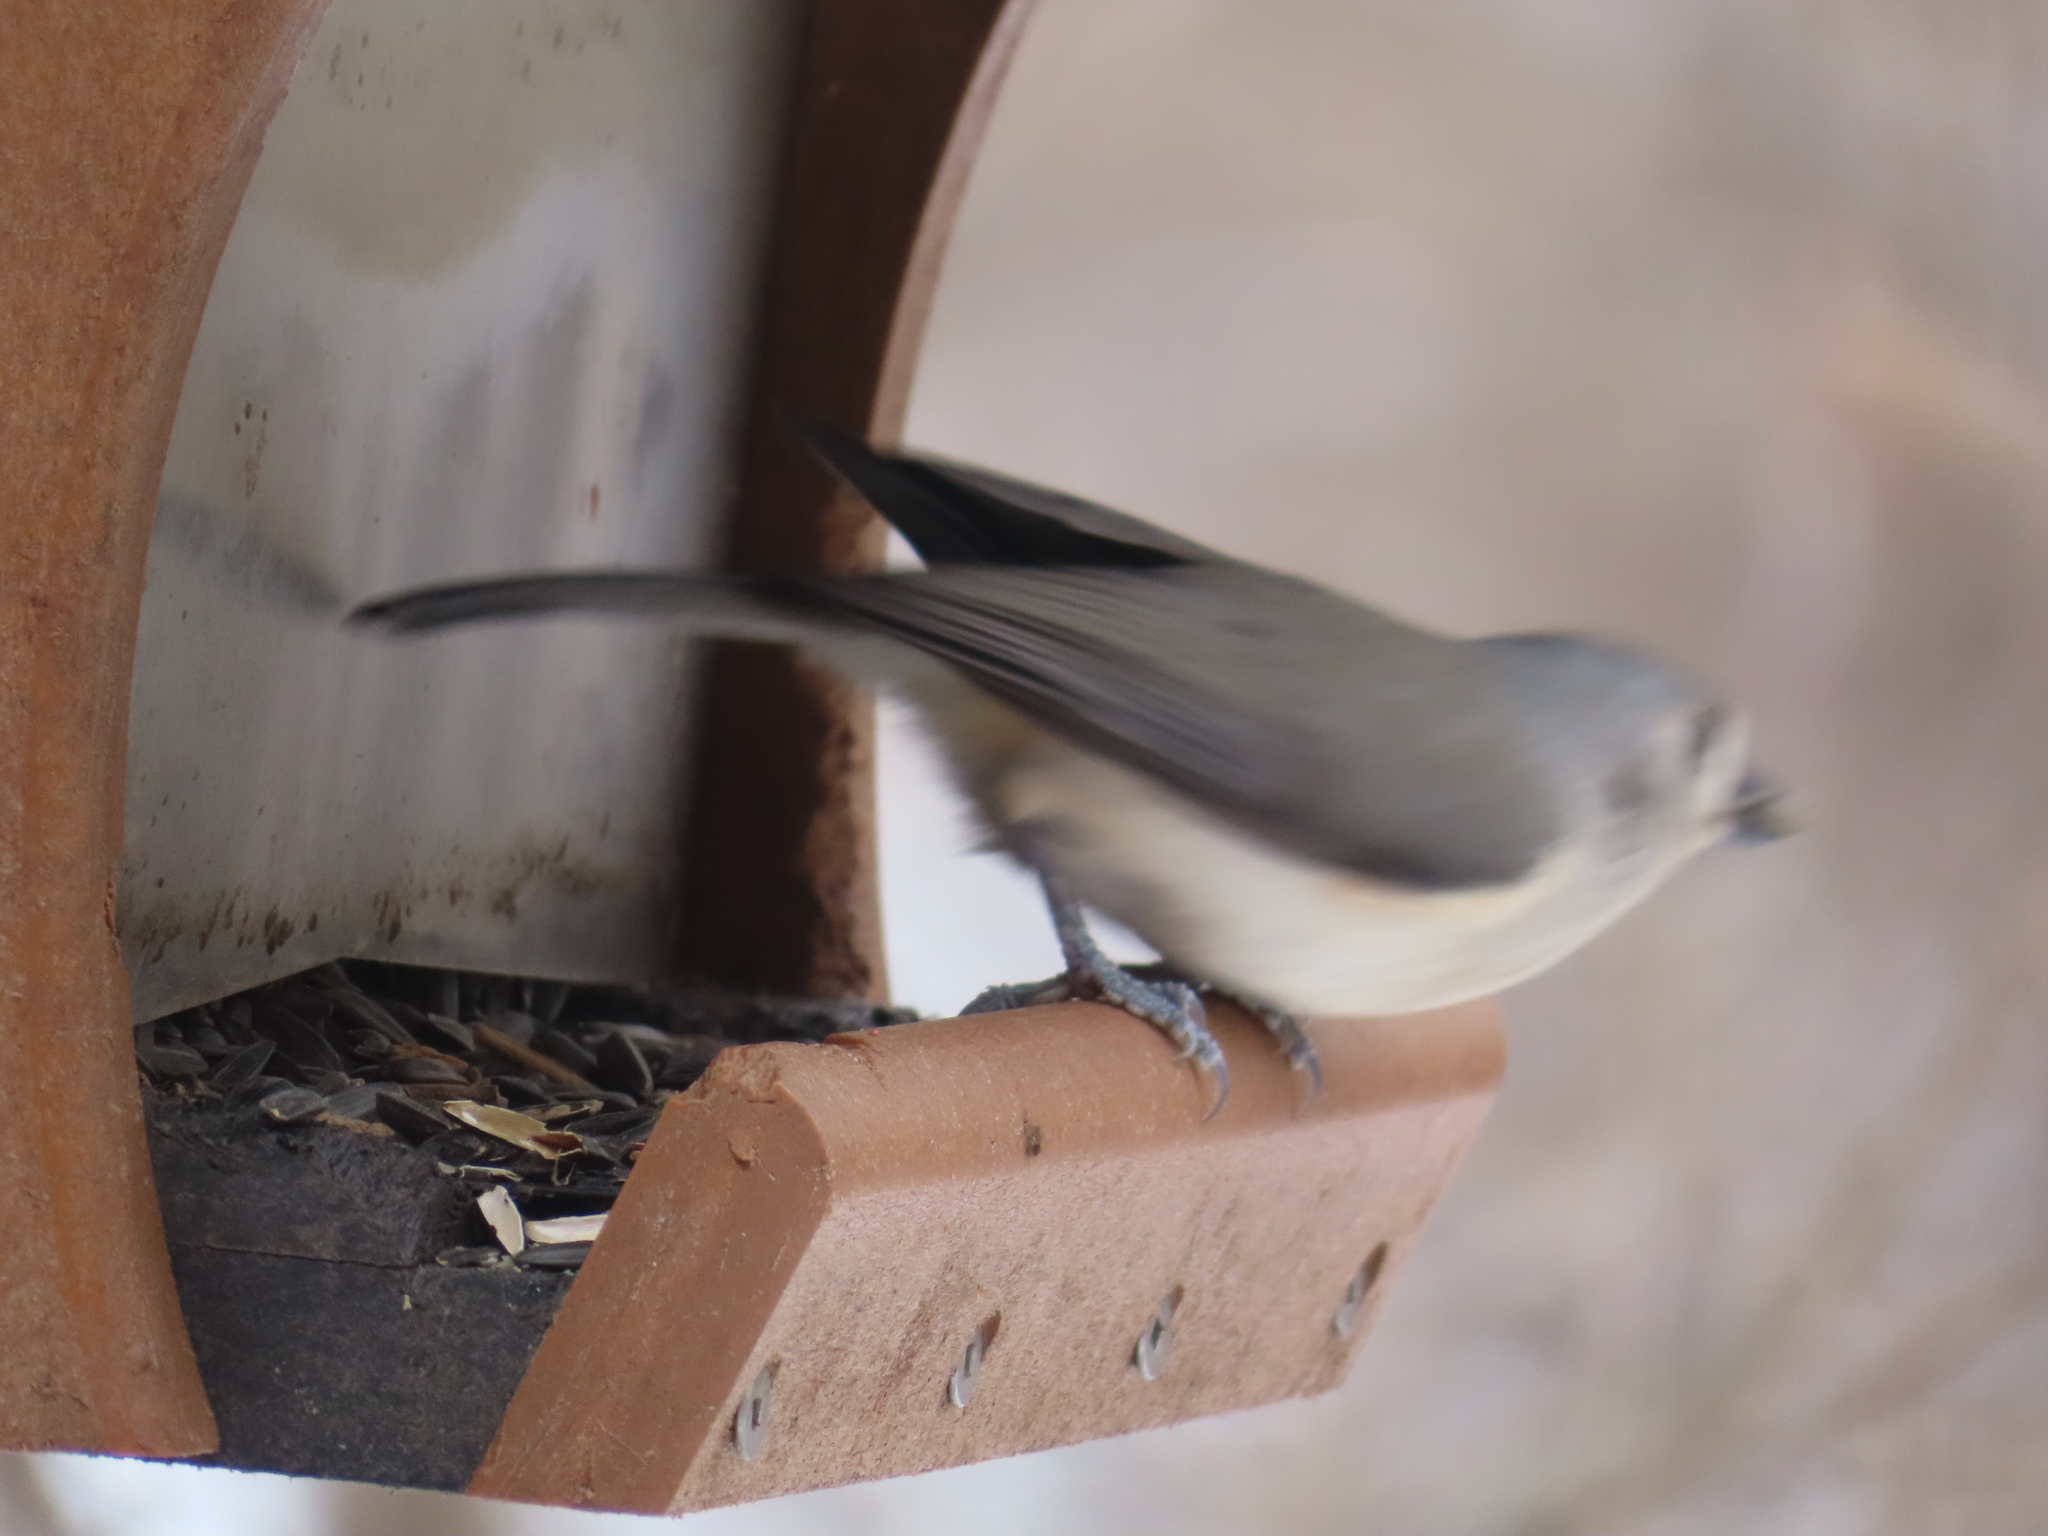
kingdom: Animalia
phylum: Chordata
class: Aves
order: Passeriformes
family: Paridae
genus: Baeolophus
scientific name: Baeolophus bicolor
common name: Tufted titmouse
